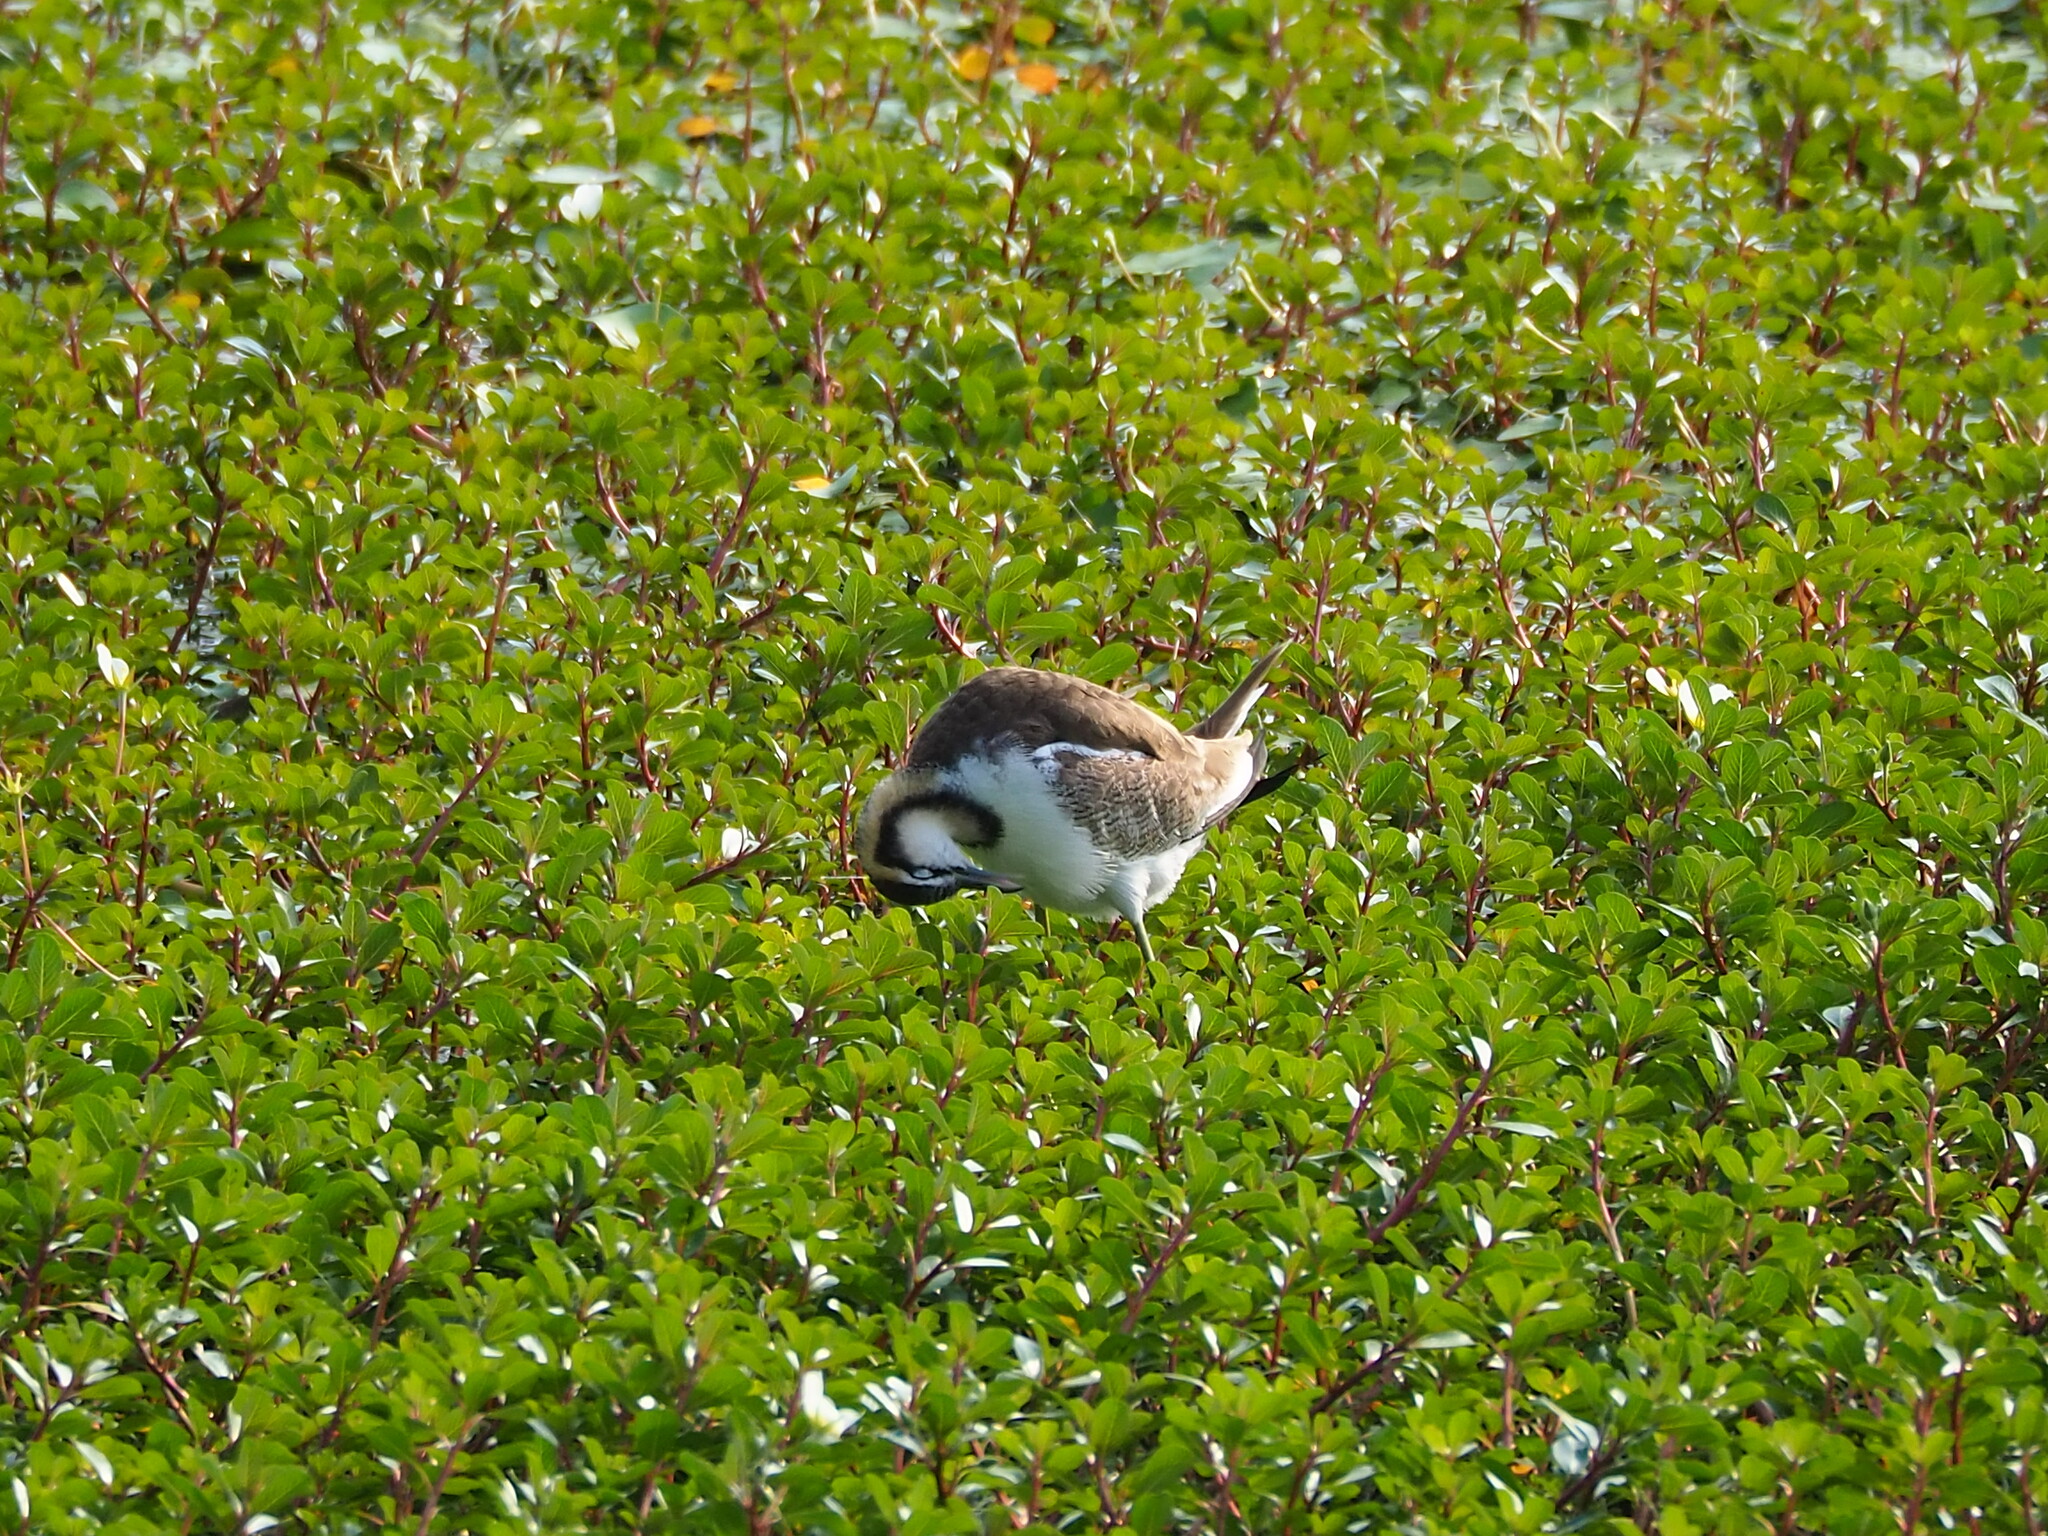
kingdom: Animalia
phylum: Chordata
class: Aves
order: Charadriiformes
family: Jacanidae
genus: Hydrophasianus
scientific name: Hydrophasianus chirurgus
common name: Pheasant-tailed jacana
